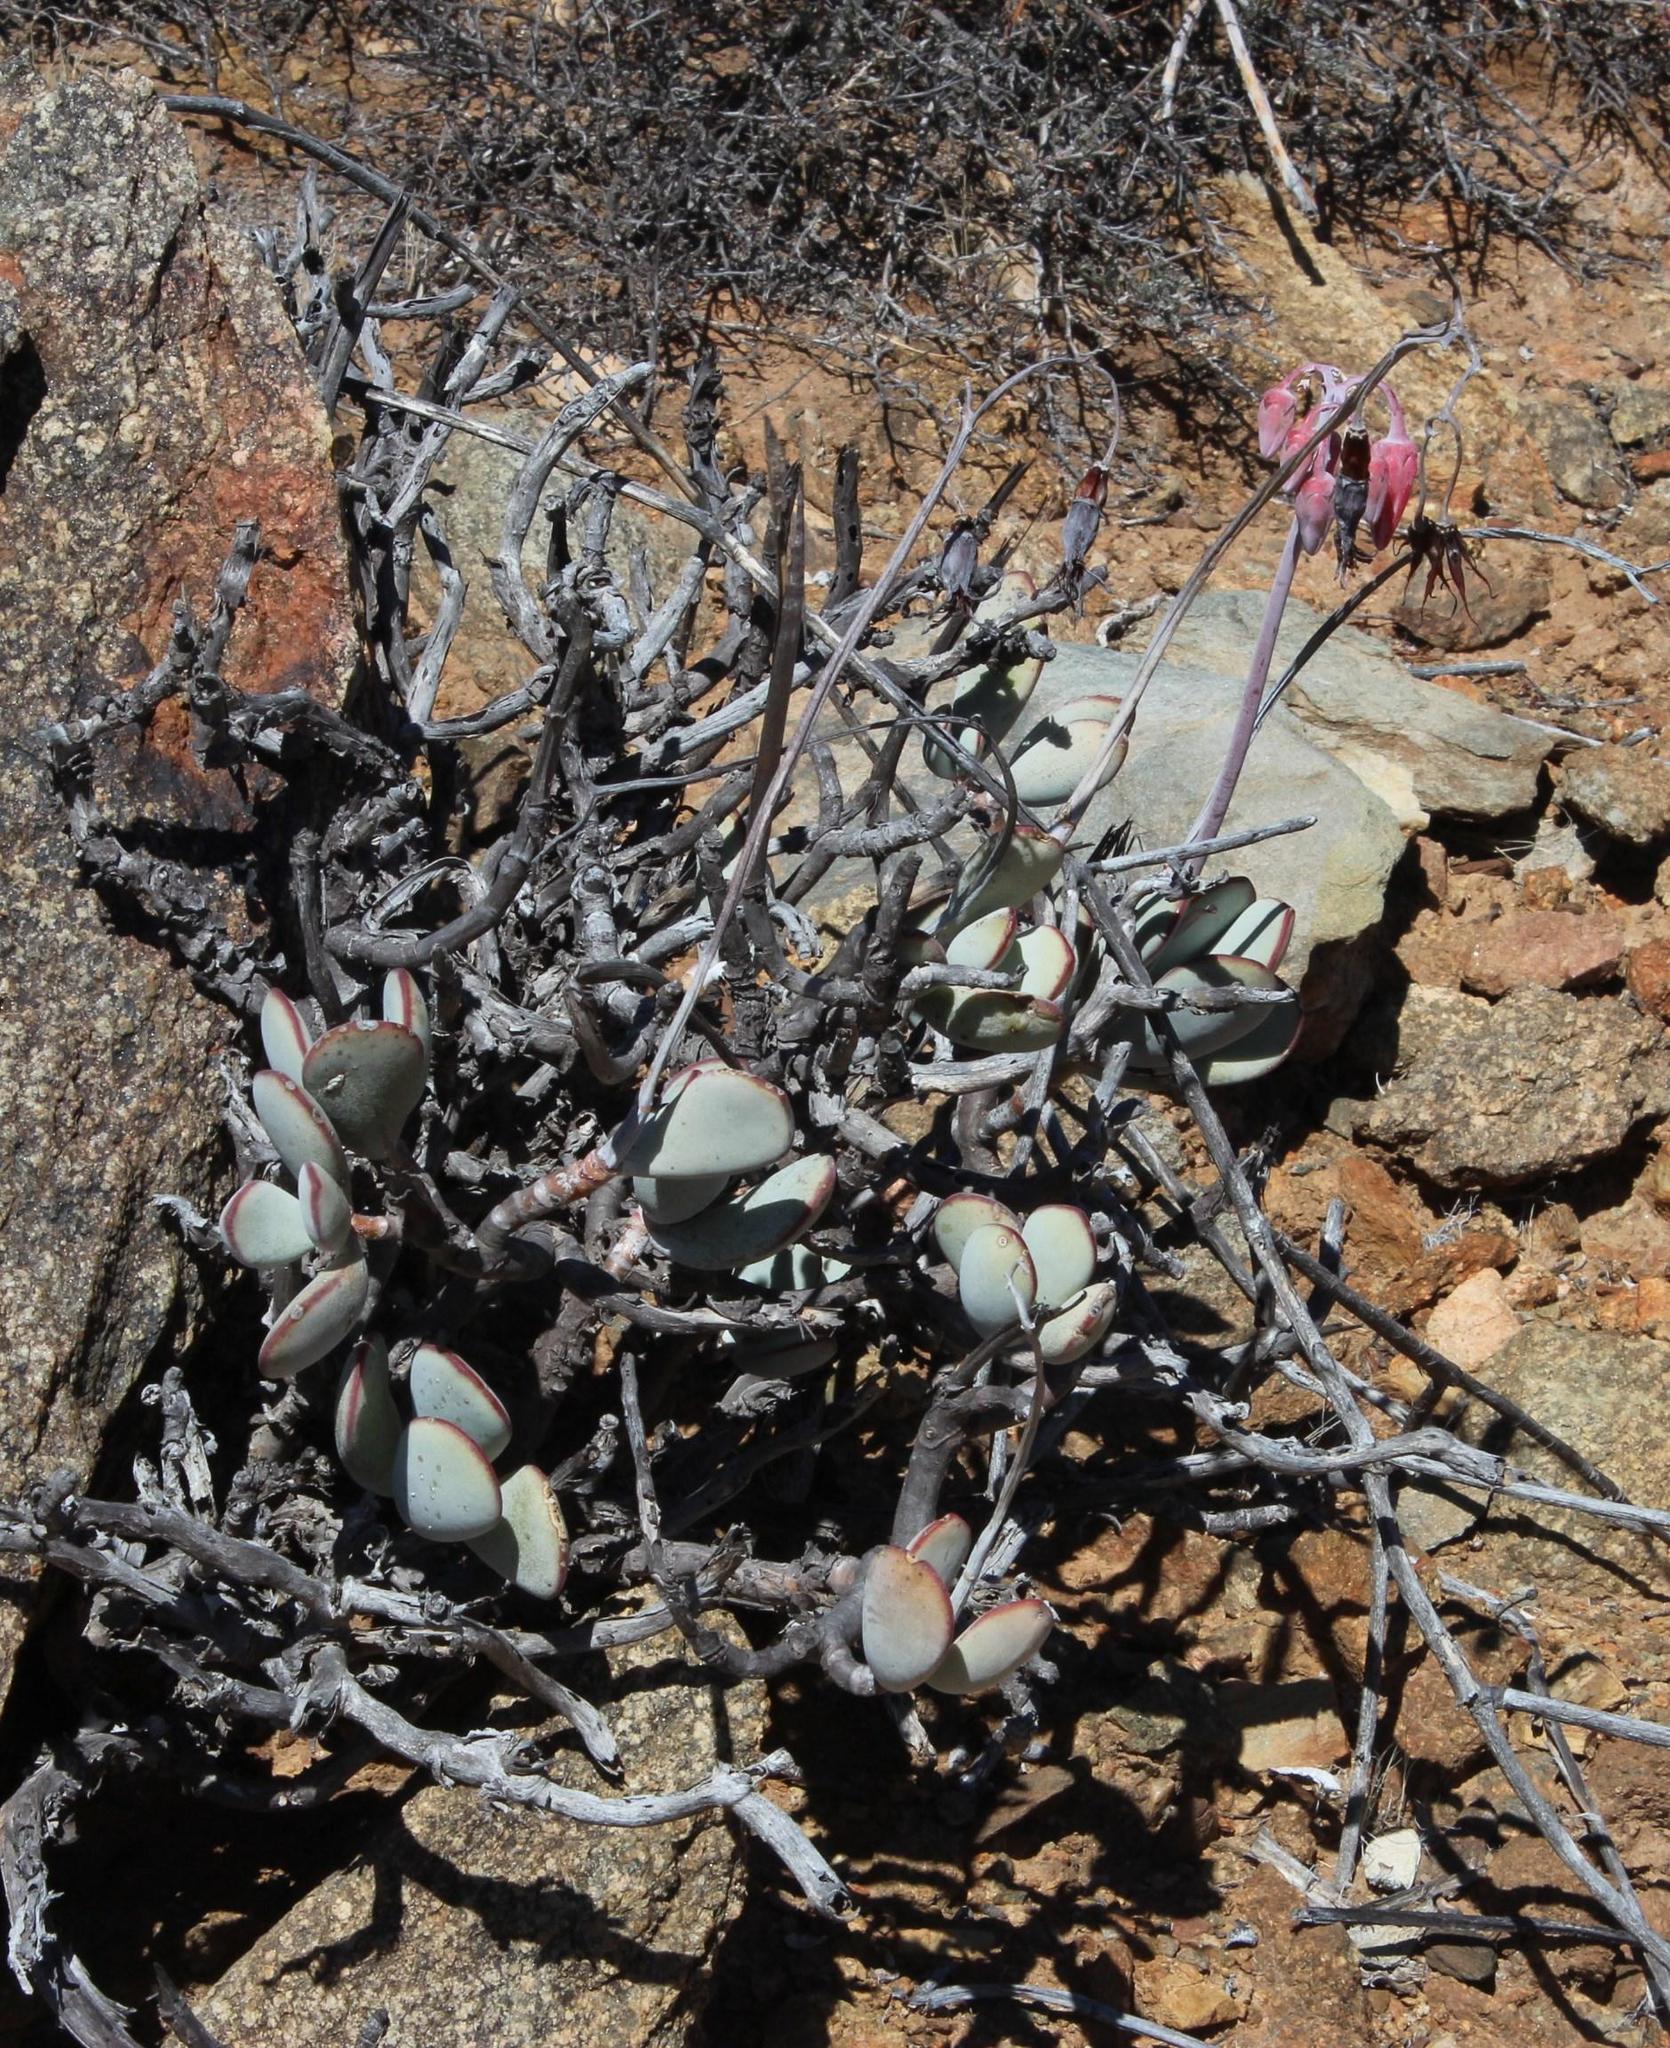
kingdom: Plantae
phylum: Tracheophyta
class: Magnoliopsida
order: Saxifragales
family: Crassulaceae
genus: Cotyledon
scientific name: Cotyledon orbiculata
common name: Pig's ear
